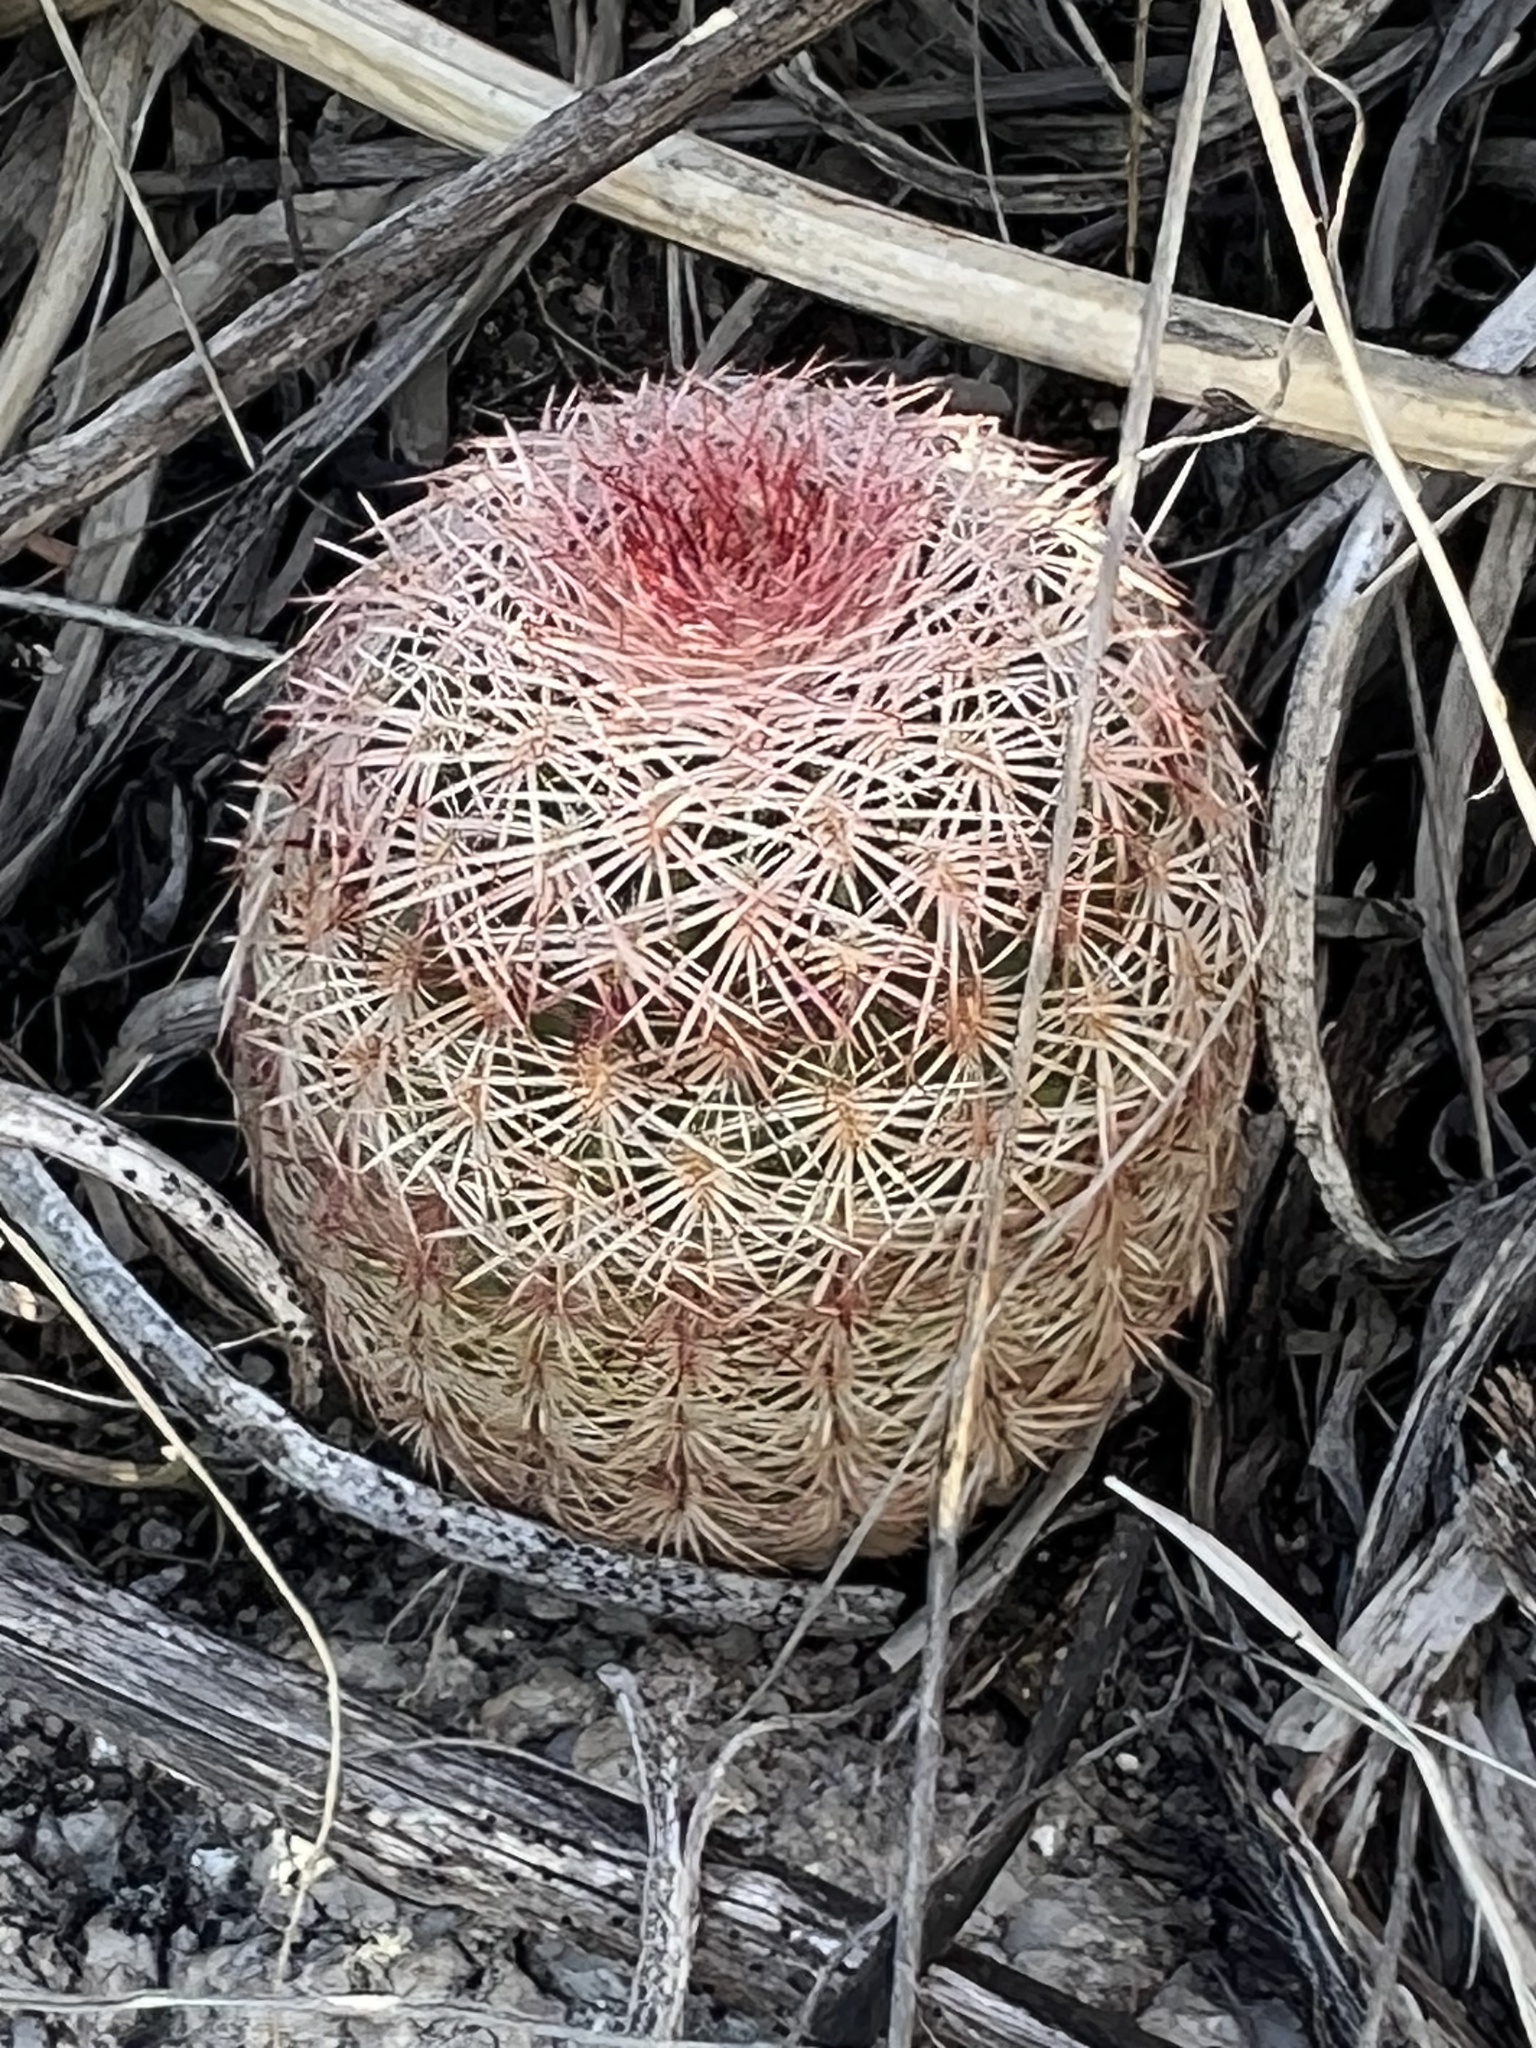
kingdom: Plantae
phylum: Tracheophyta
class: Magnoliopsida
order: Caryophyllales
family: Cactaceae
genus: Echinocereus
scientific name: Echinocereus rigidissimus
